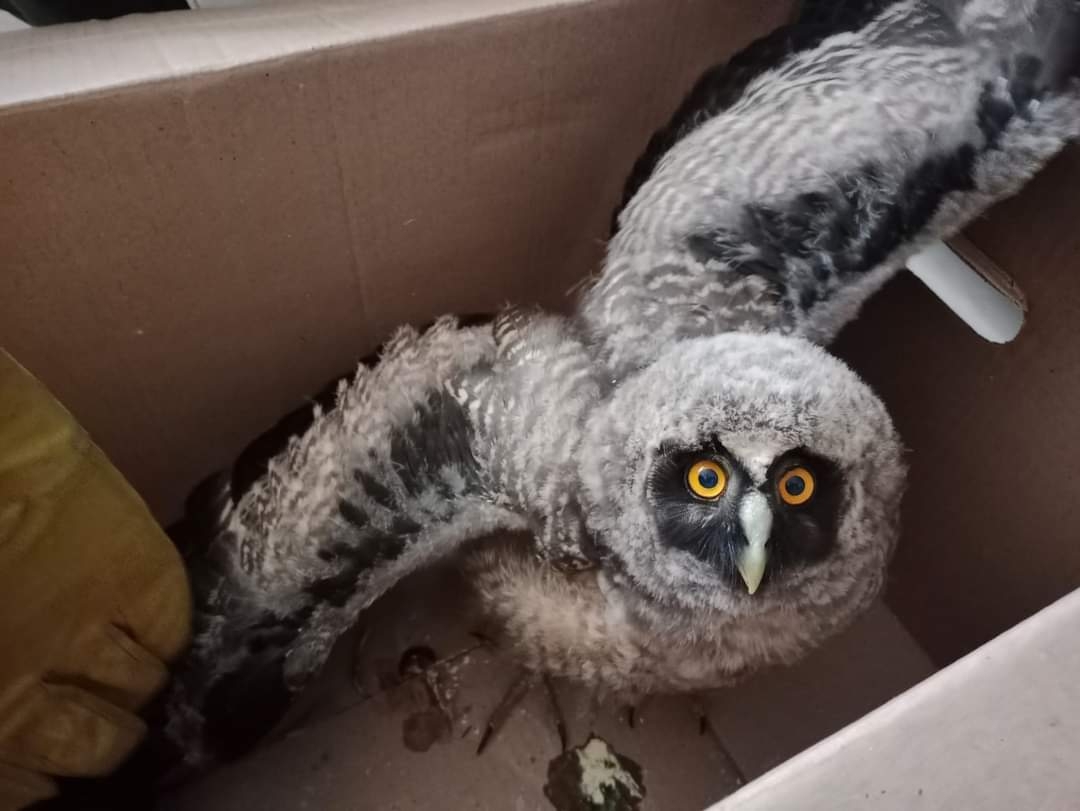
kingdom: Animalia
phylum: Chordata
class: Aves
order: Strigiformes
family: Strigidae
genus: Asio
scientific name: Asio stygius
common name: Stygian owl
